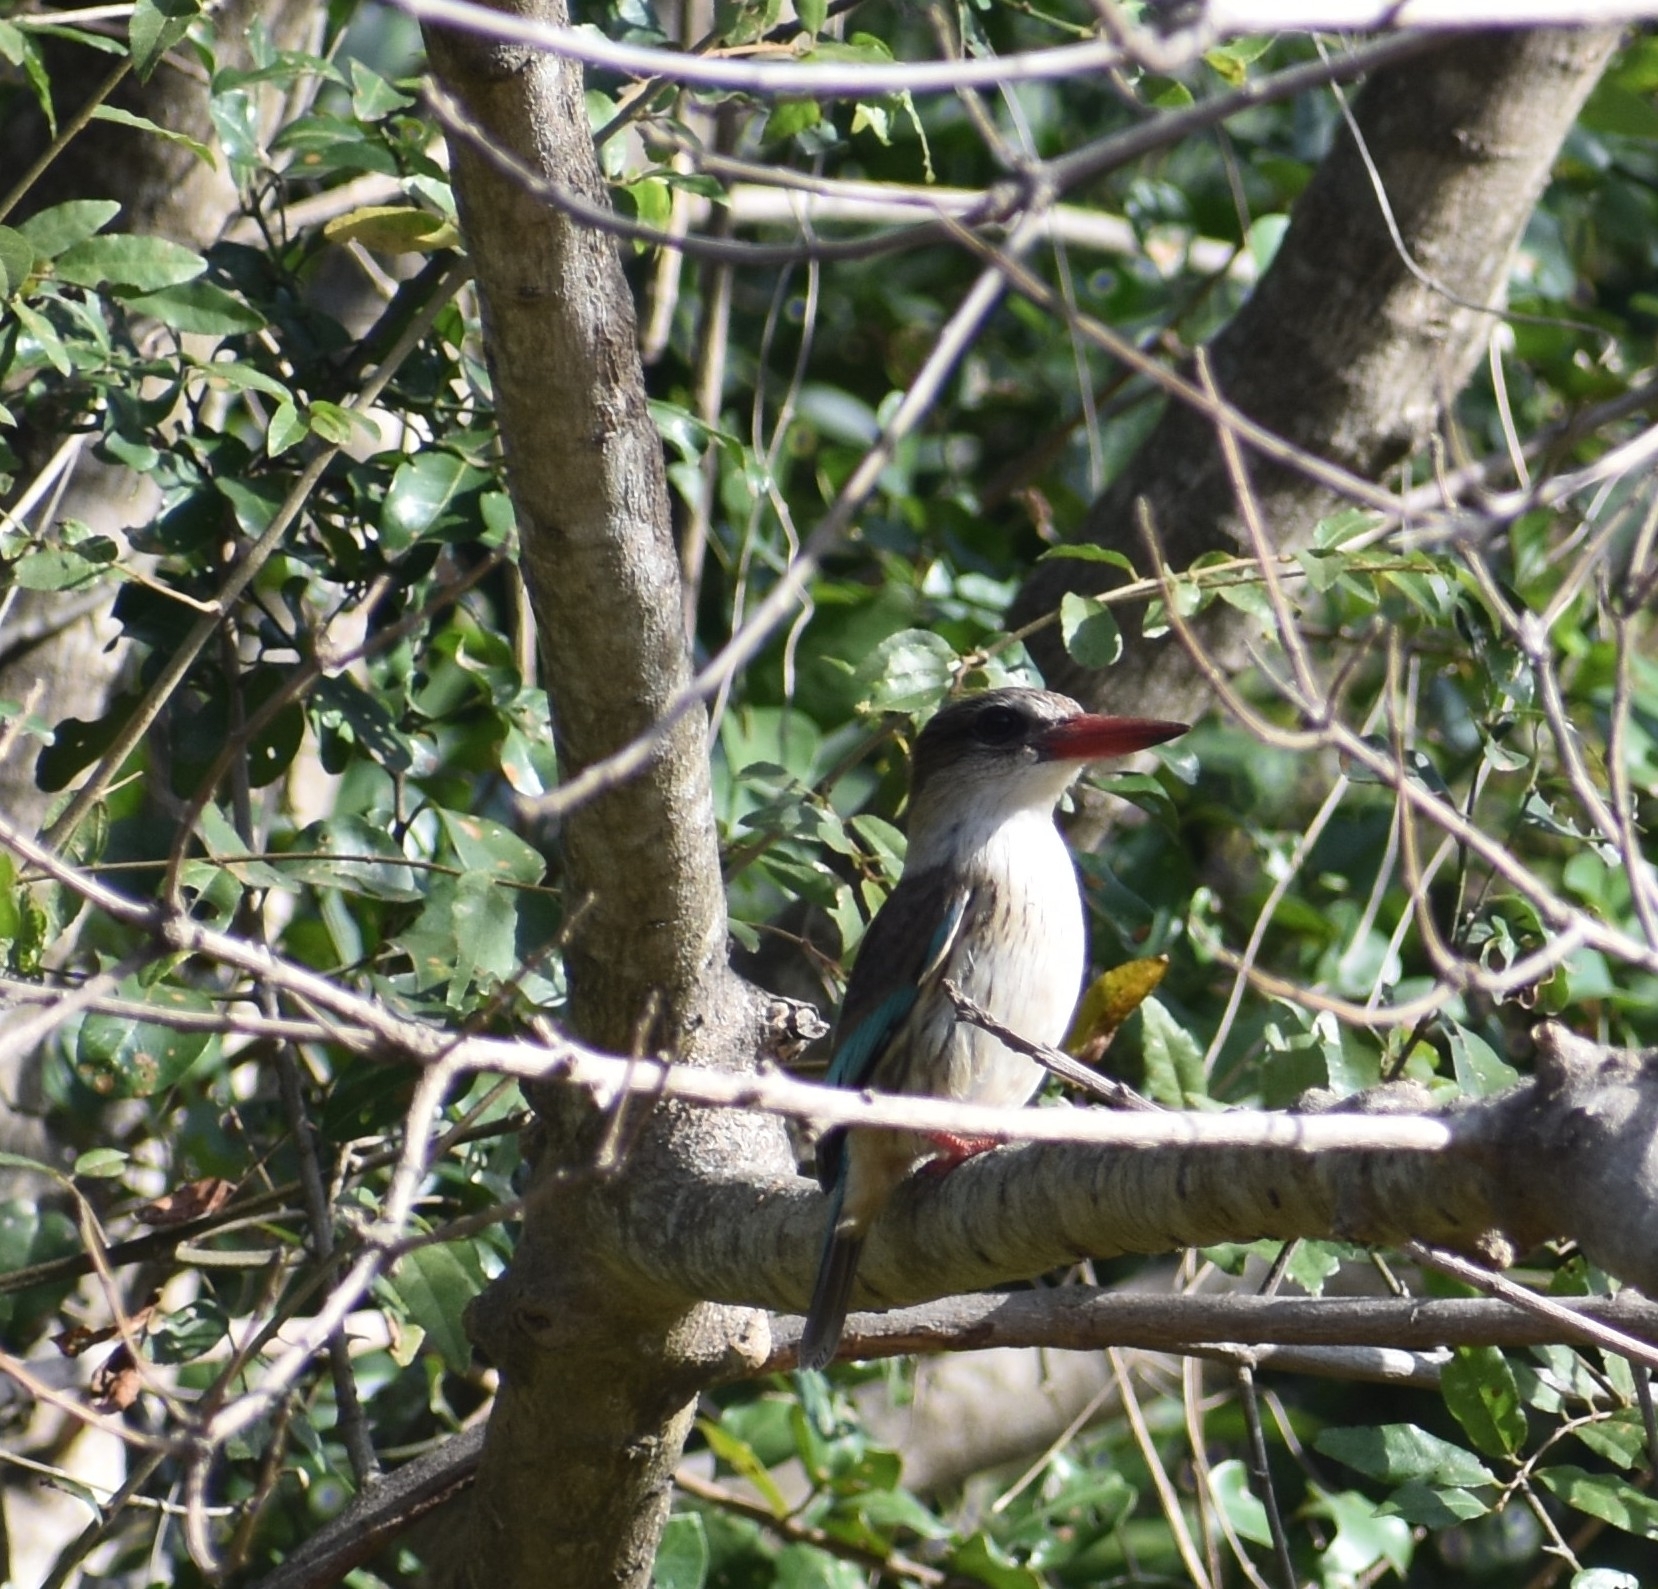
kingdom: Animalia
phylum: Chordata
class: Aves
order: Coraciiformes
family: Alcedinidae
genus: Halcyon
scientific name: Halcyon albiventris
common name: Brown-hooded kingfisher
